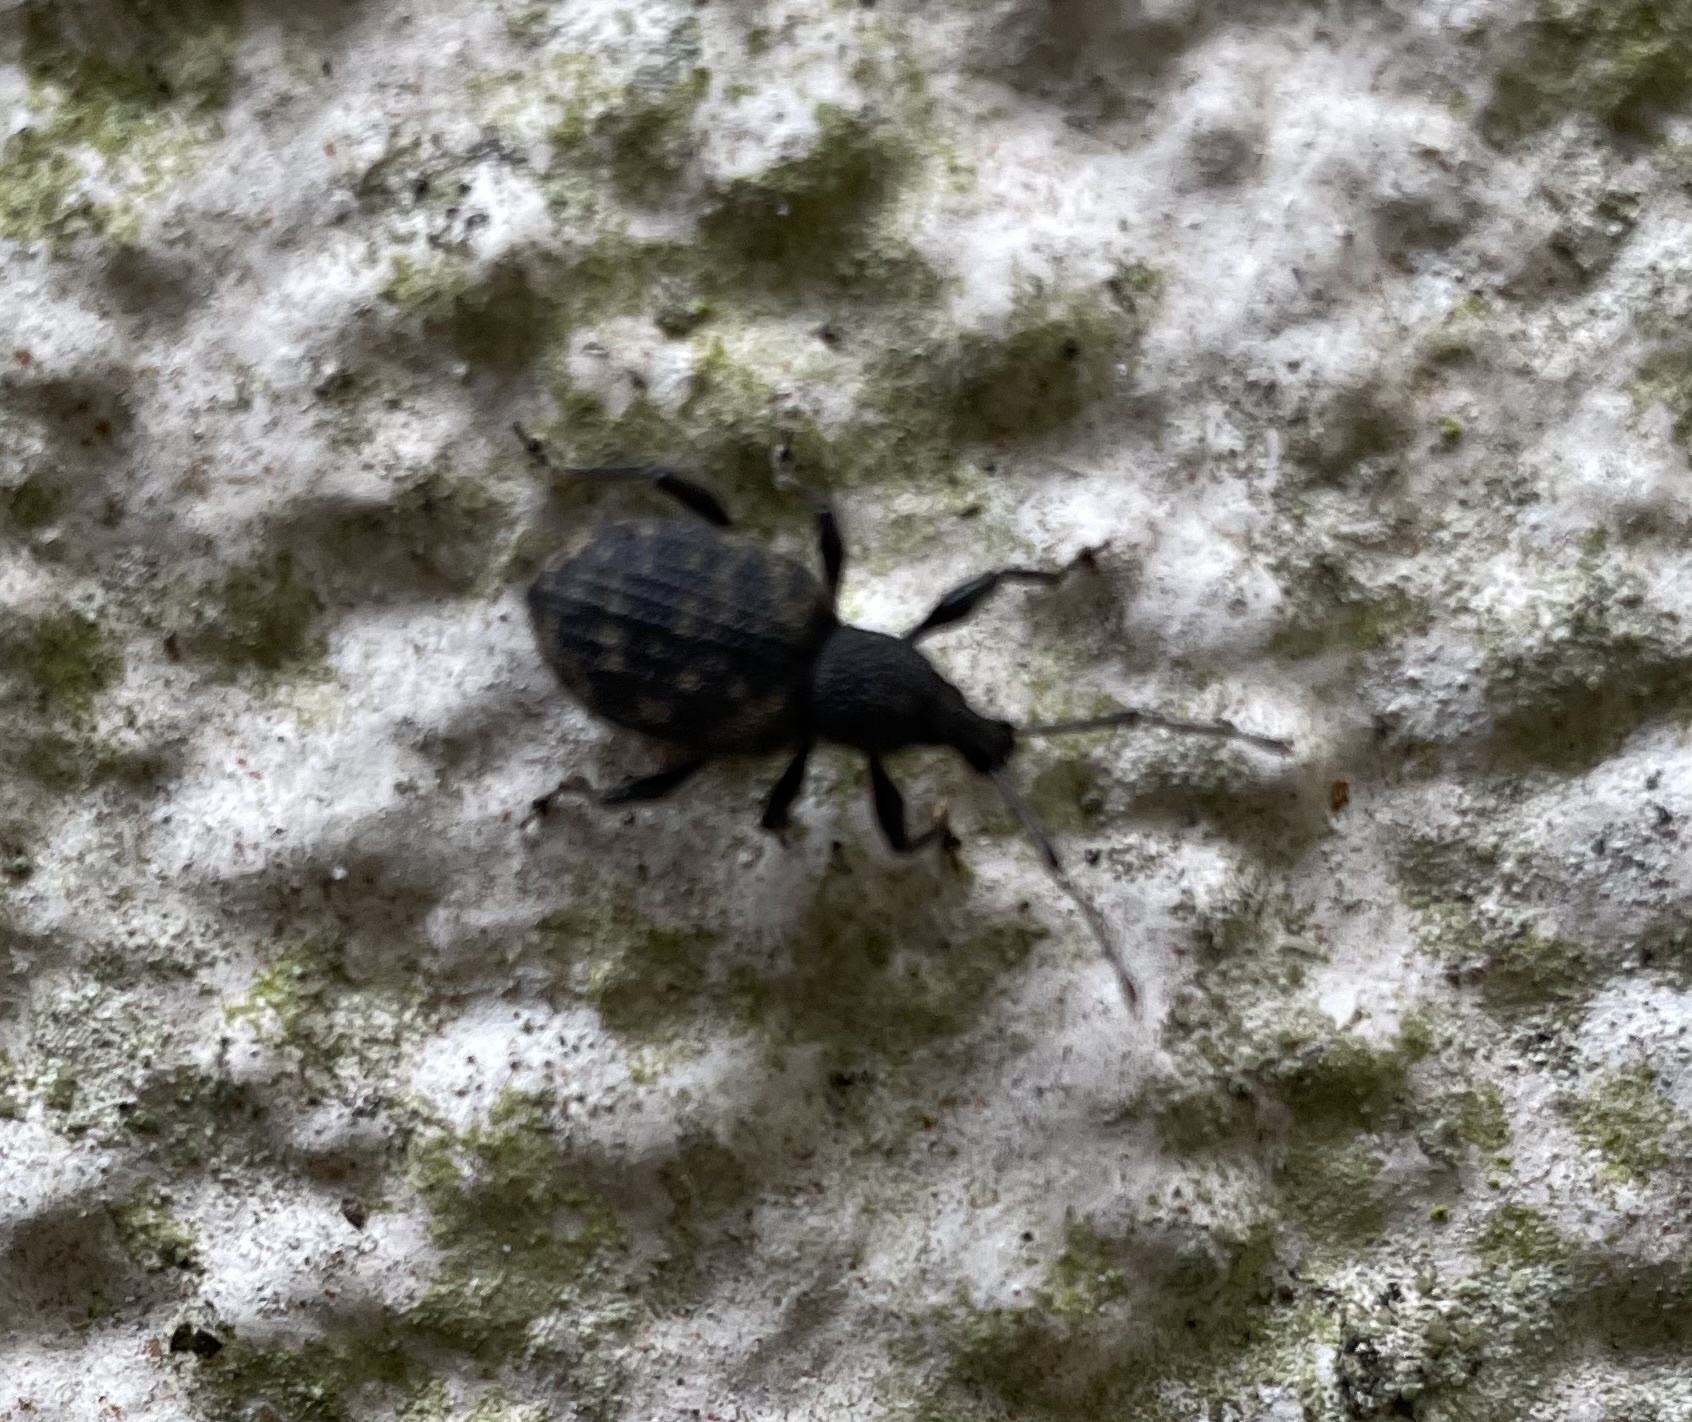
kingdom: Animalia
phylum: Arthropoda
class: Insecta
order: Coleoptera
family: Curculionidae
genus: Otiorhynchus
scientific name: Otiorhynchus sulcatus
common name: Black vine weevil
